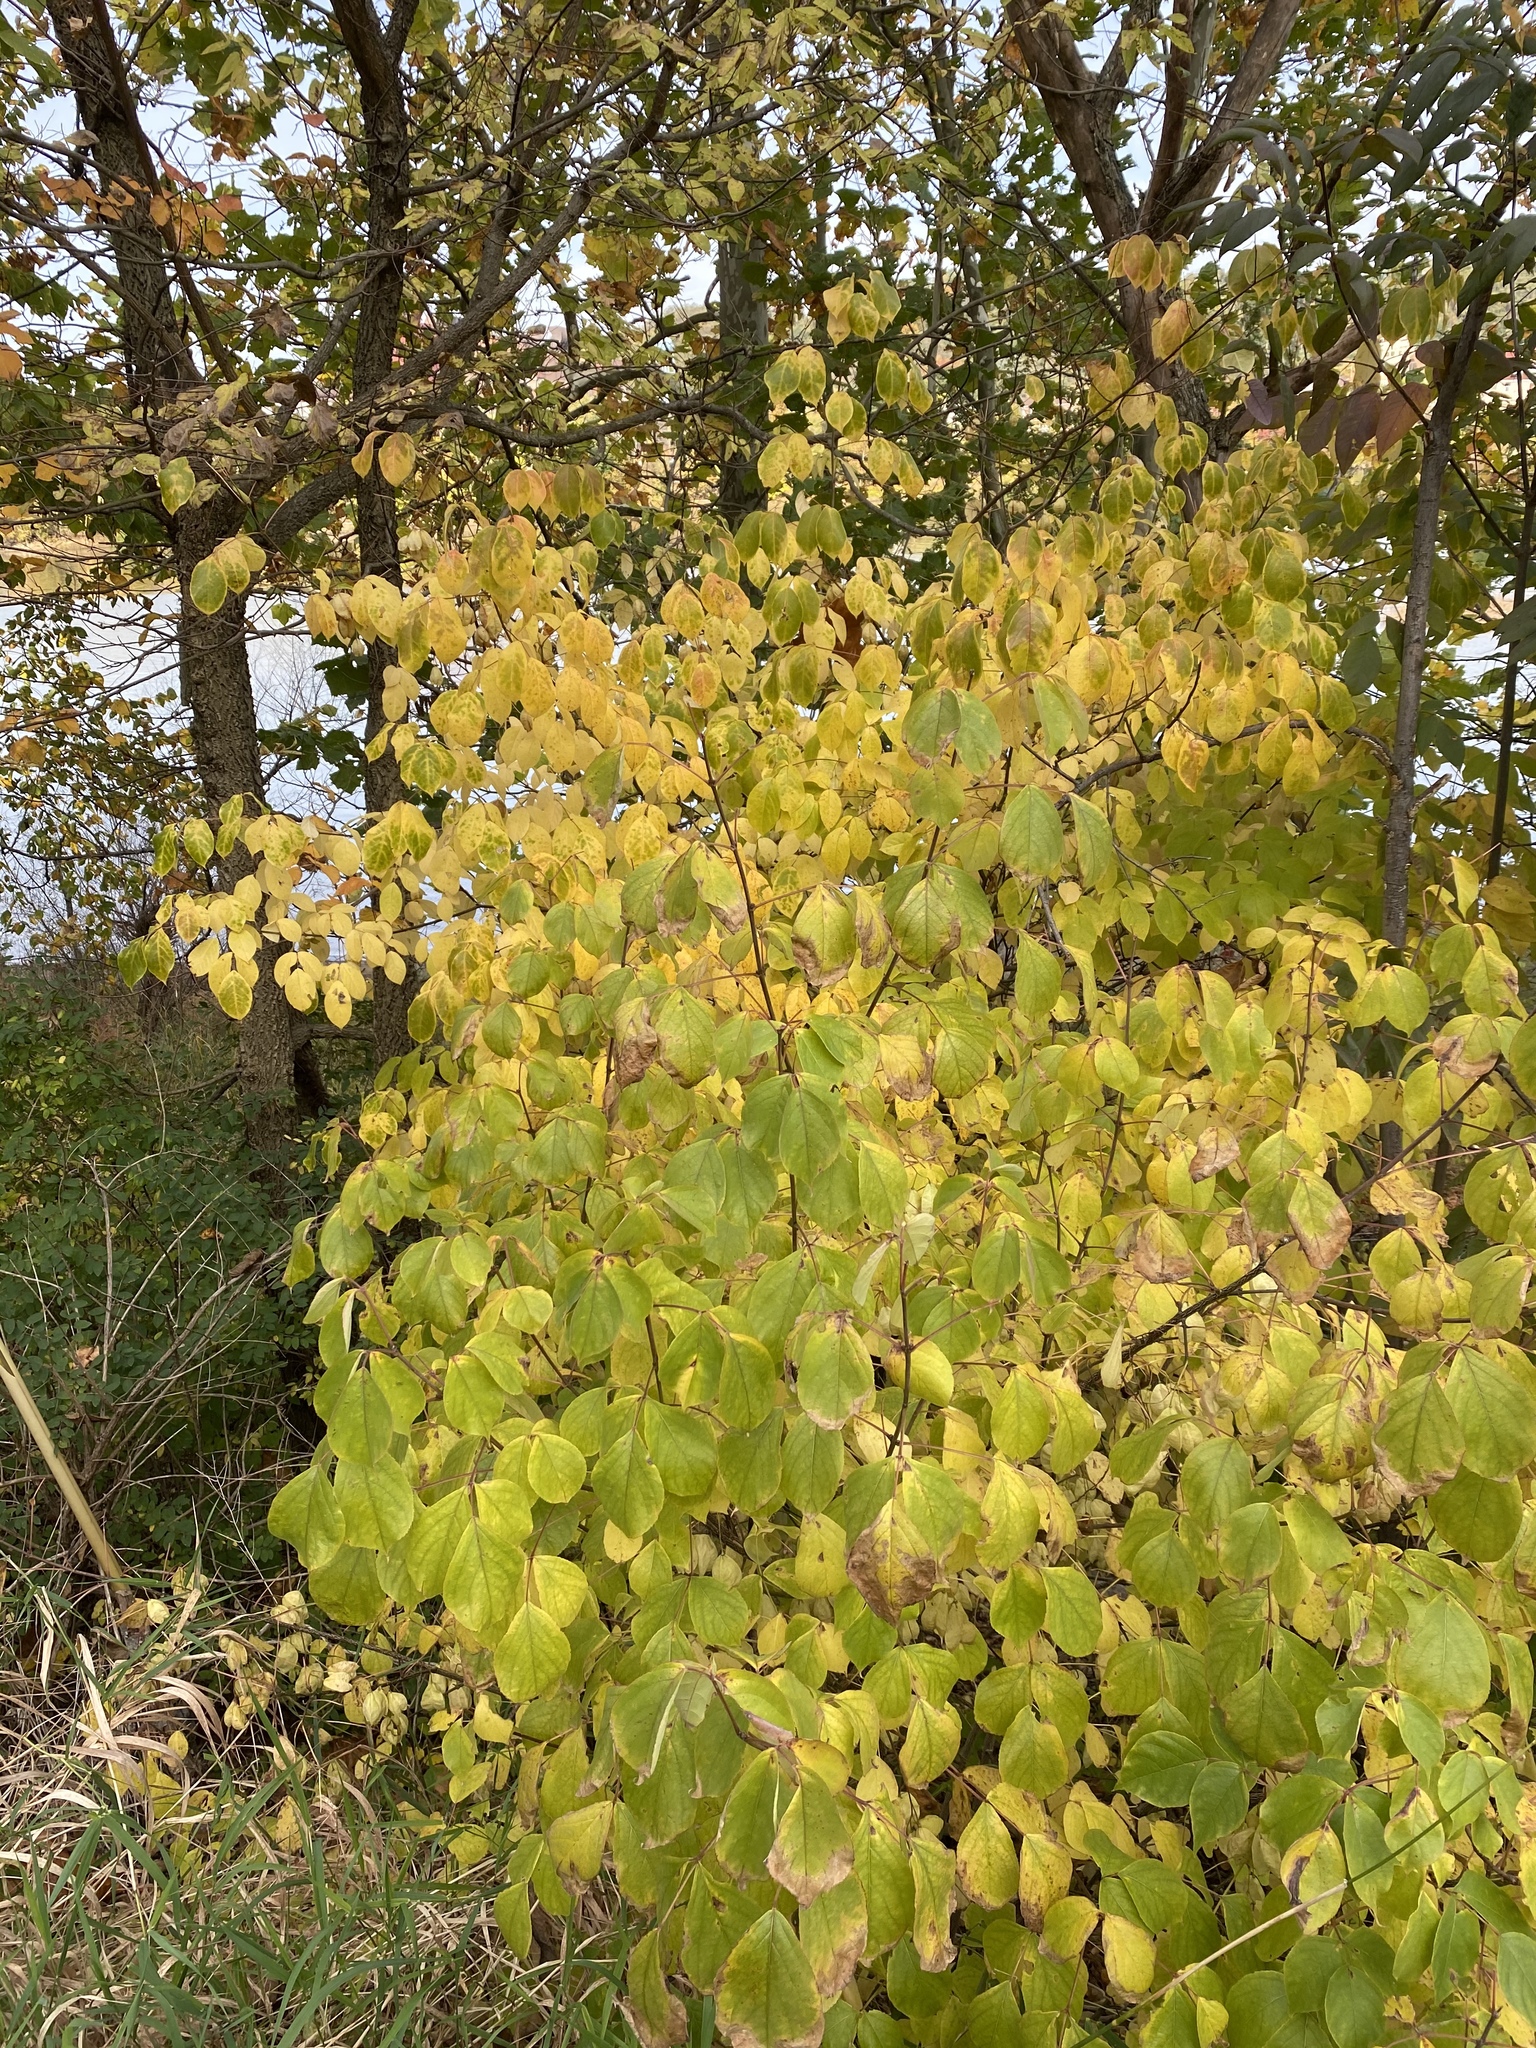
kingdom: Plantae
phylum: Tracheophyta
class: Magnoliopsida
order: Crossosomatales
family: Staphyleaceae
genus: Staphylea
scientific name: Staphylea trifolia
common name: American bladdernut
